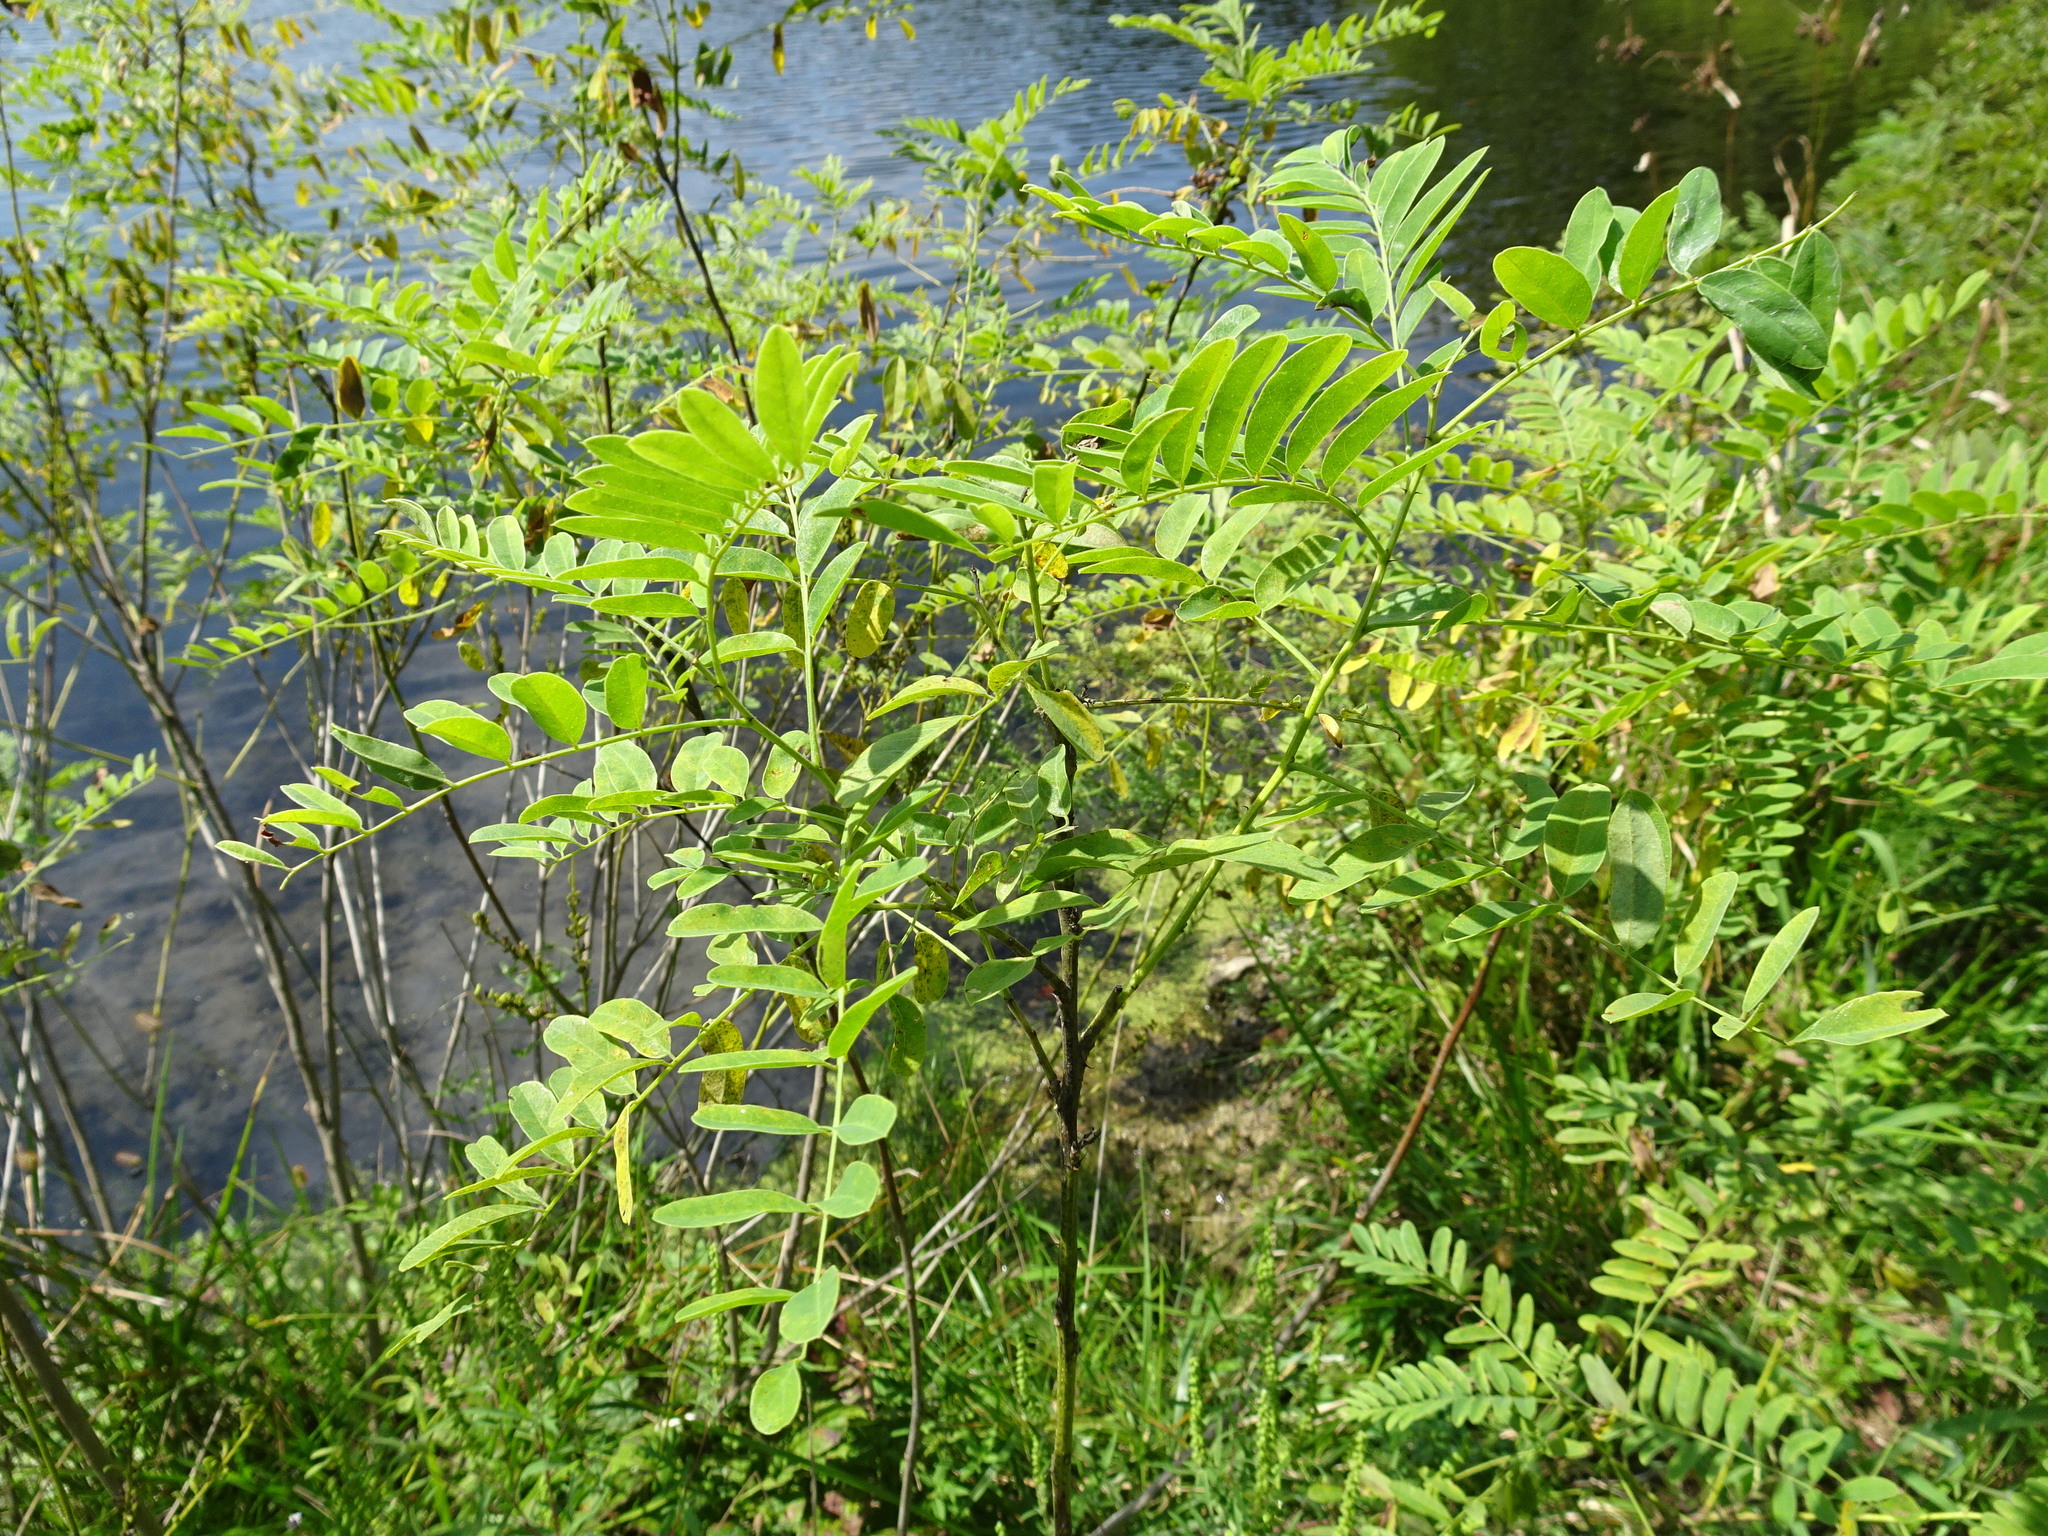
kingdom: Plantae
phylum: Tracheophyta
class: Magnoliopsida
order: Fabales
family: Fabaceae
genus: Amorpha
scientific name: Amorpha fruticosa
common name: False indigo
